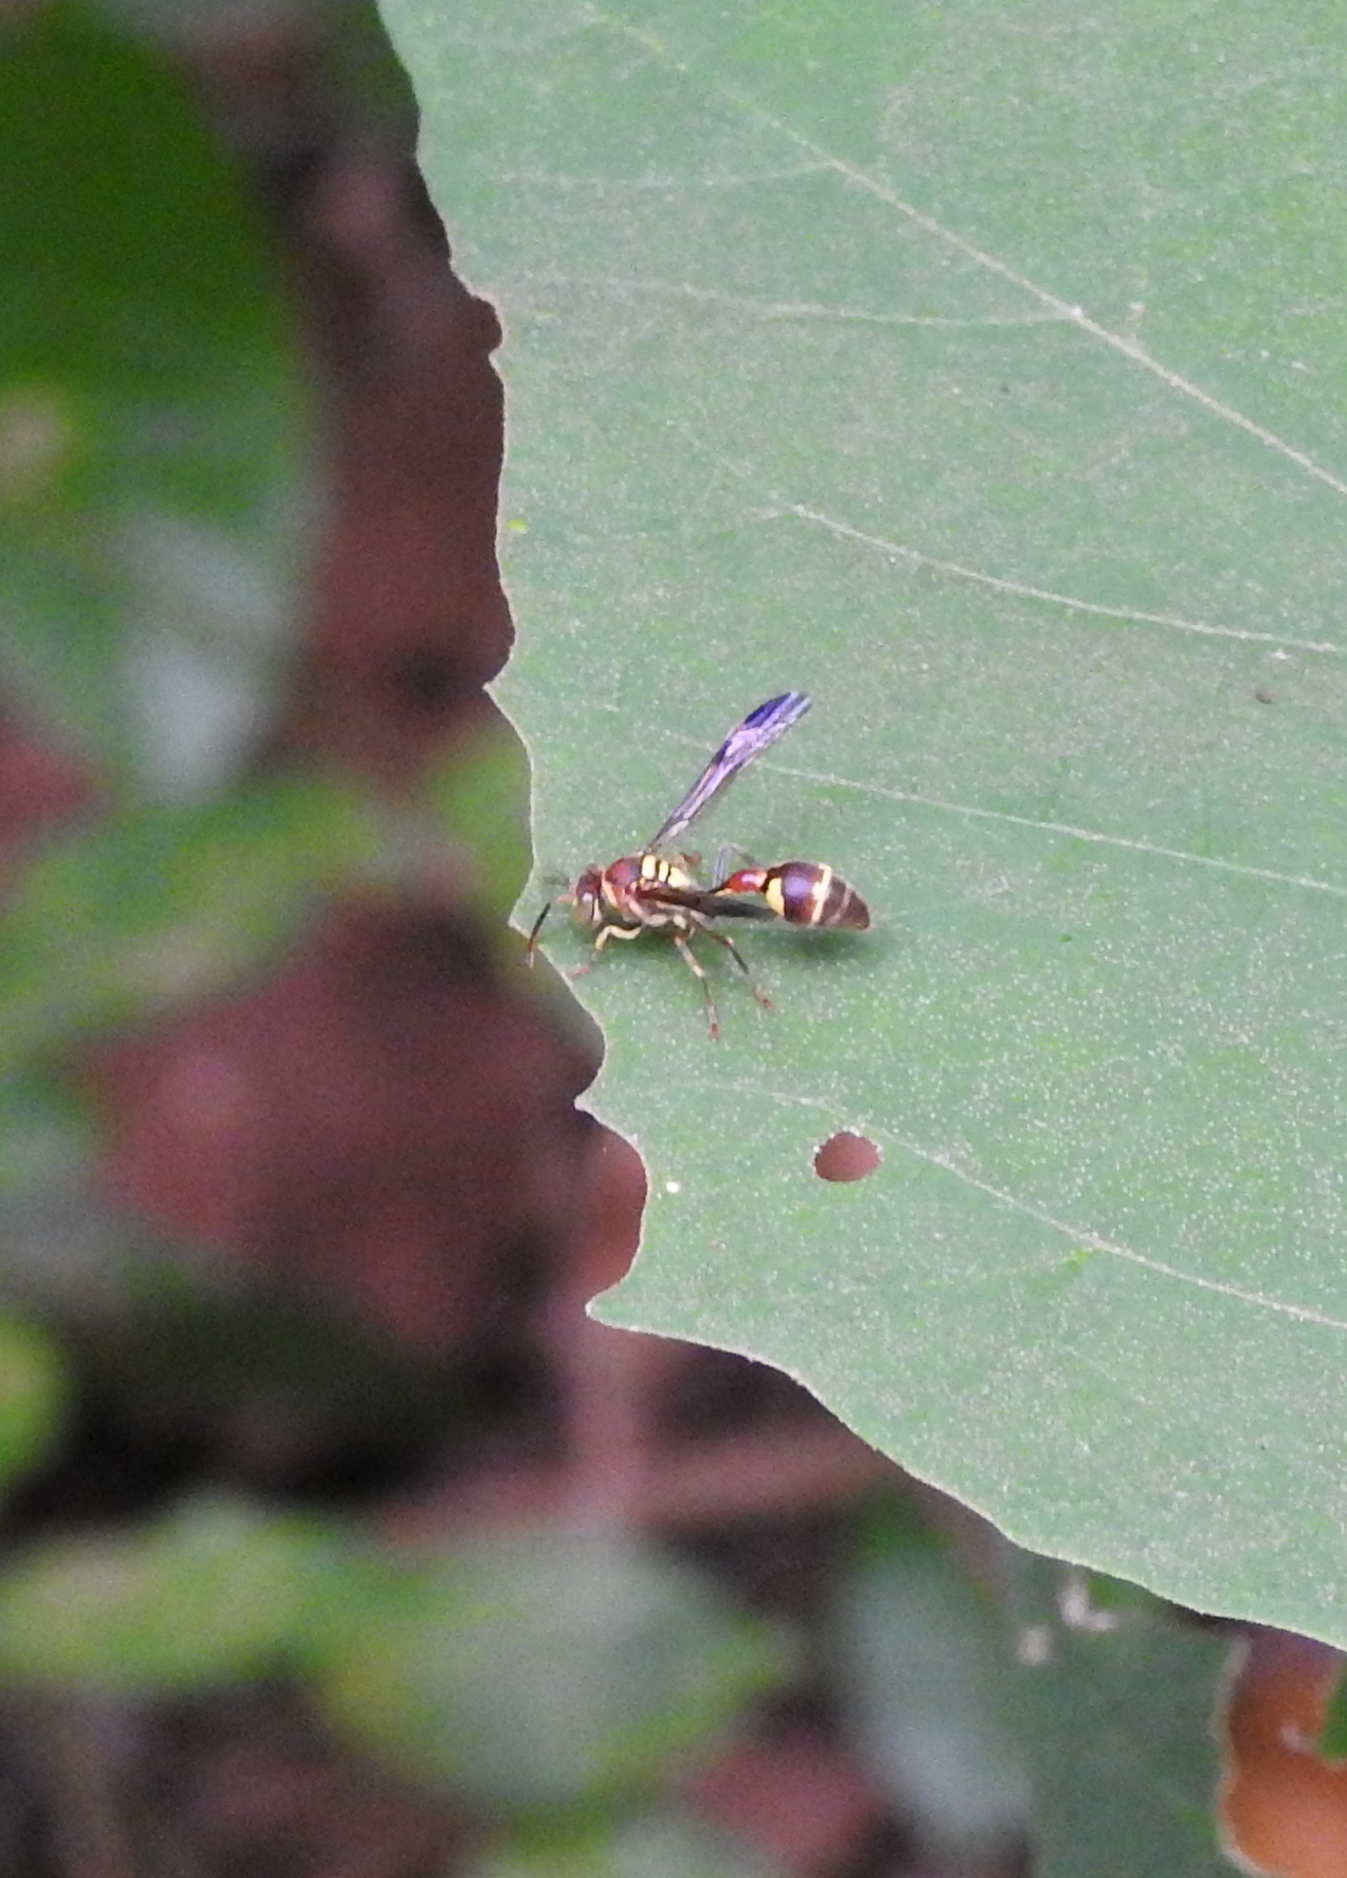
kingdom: Animalia
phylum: Arthropoda
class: Insecta
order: Hymenoptera
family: Vespidae
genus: Ropalidia
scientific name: Ropalidia stigma
